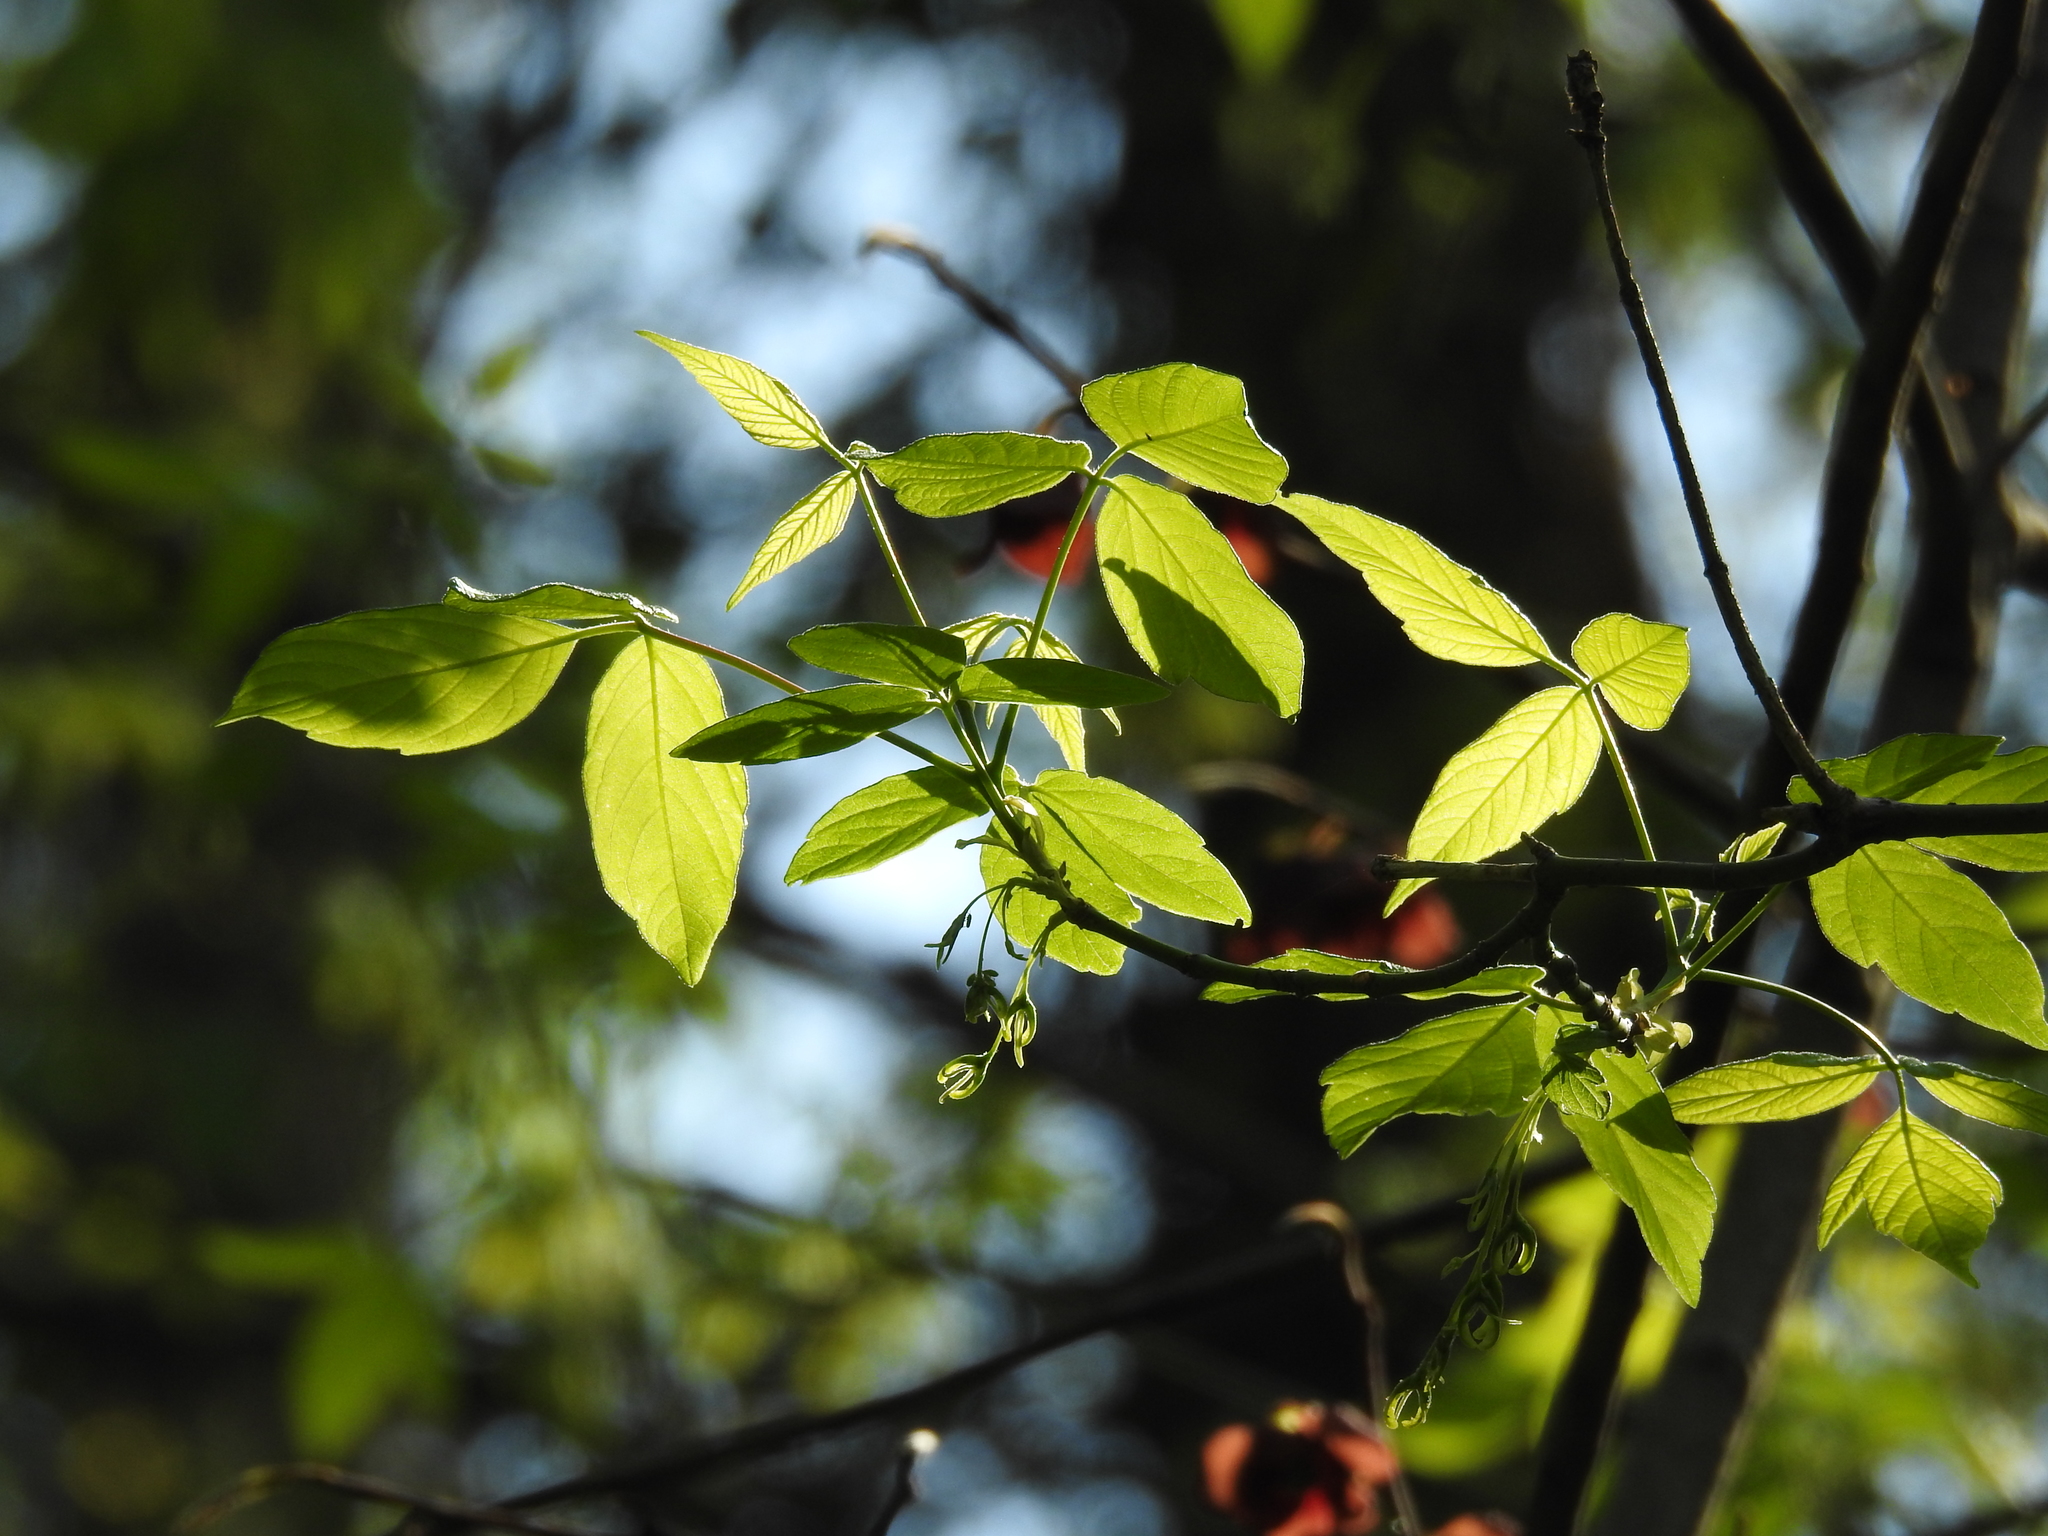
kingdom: Plantae
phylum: Tracheophyta
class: Magnoliopsida
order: Sapindales
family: Sapindaceae
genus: Acer
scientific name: Acer negundo
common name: Ashleaf maple
